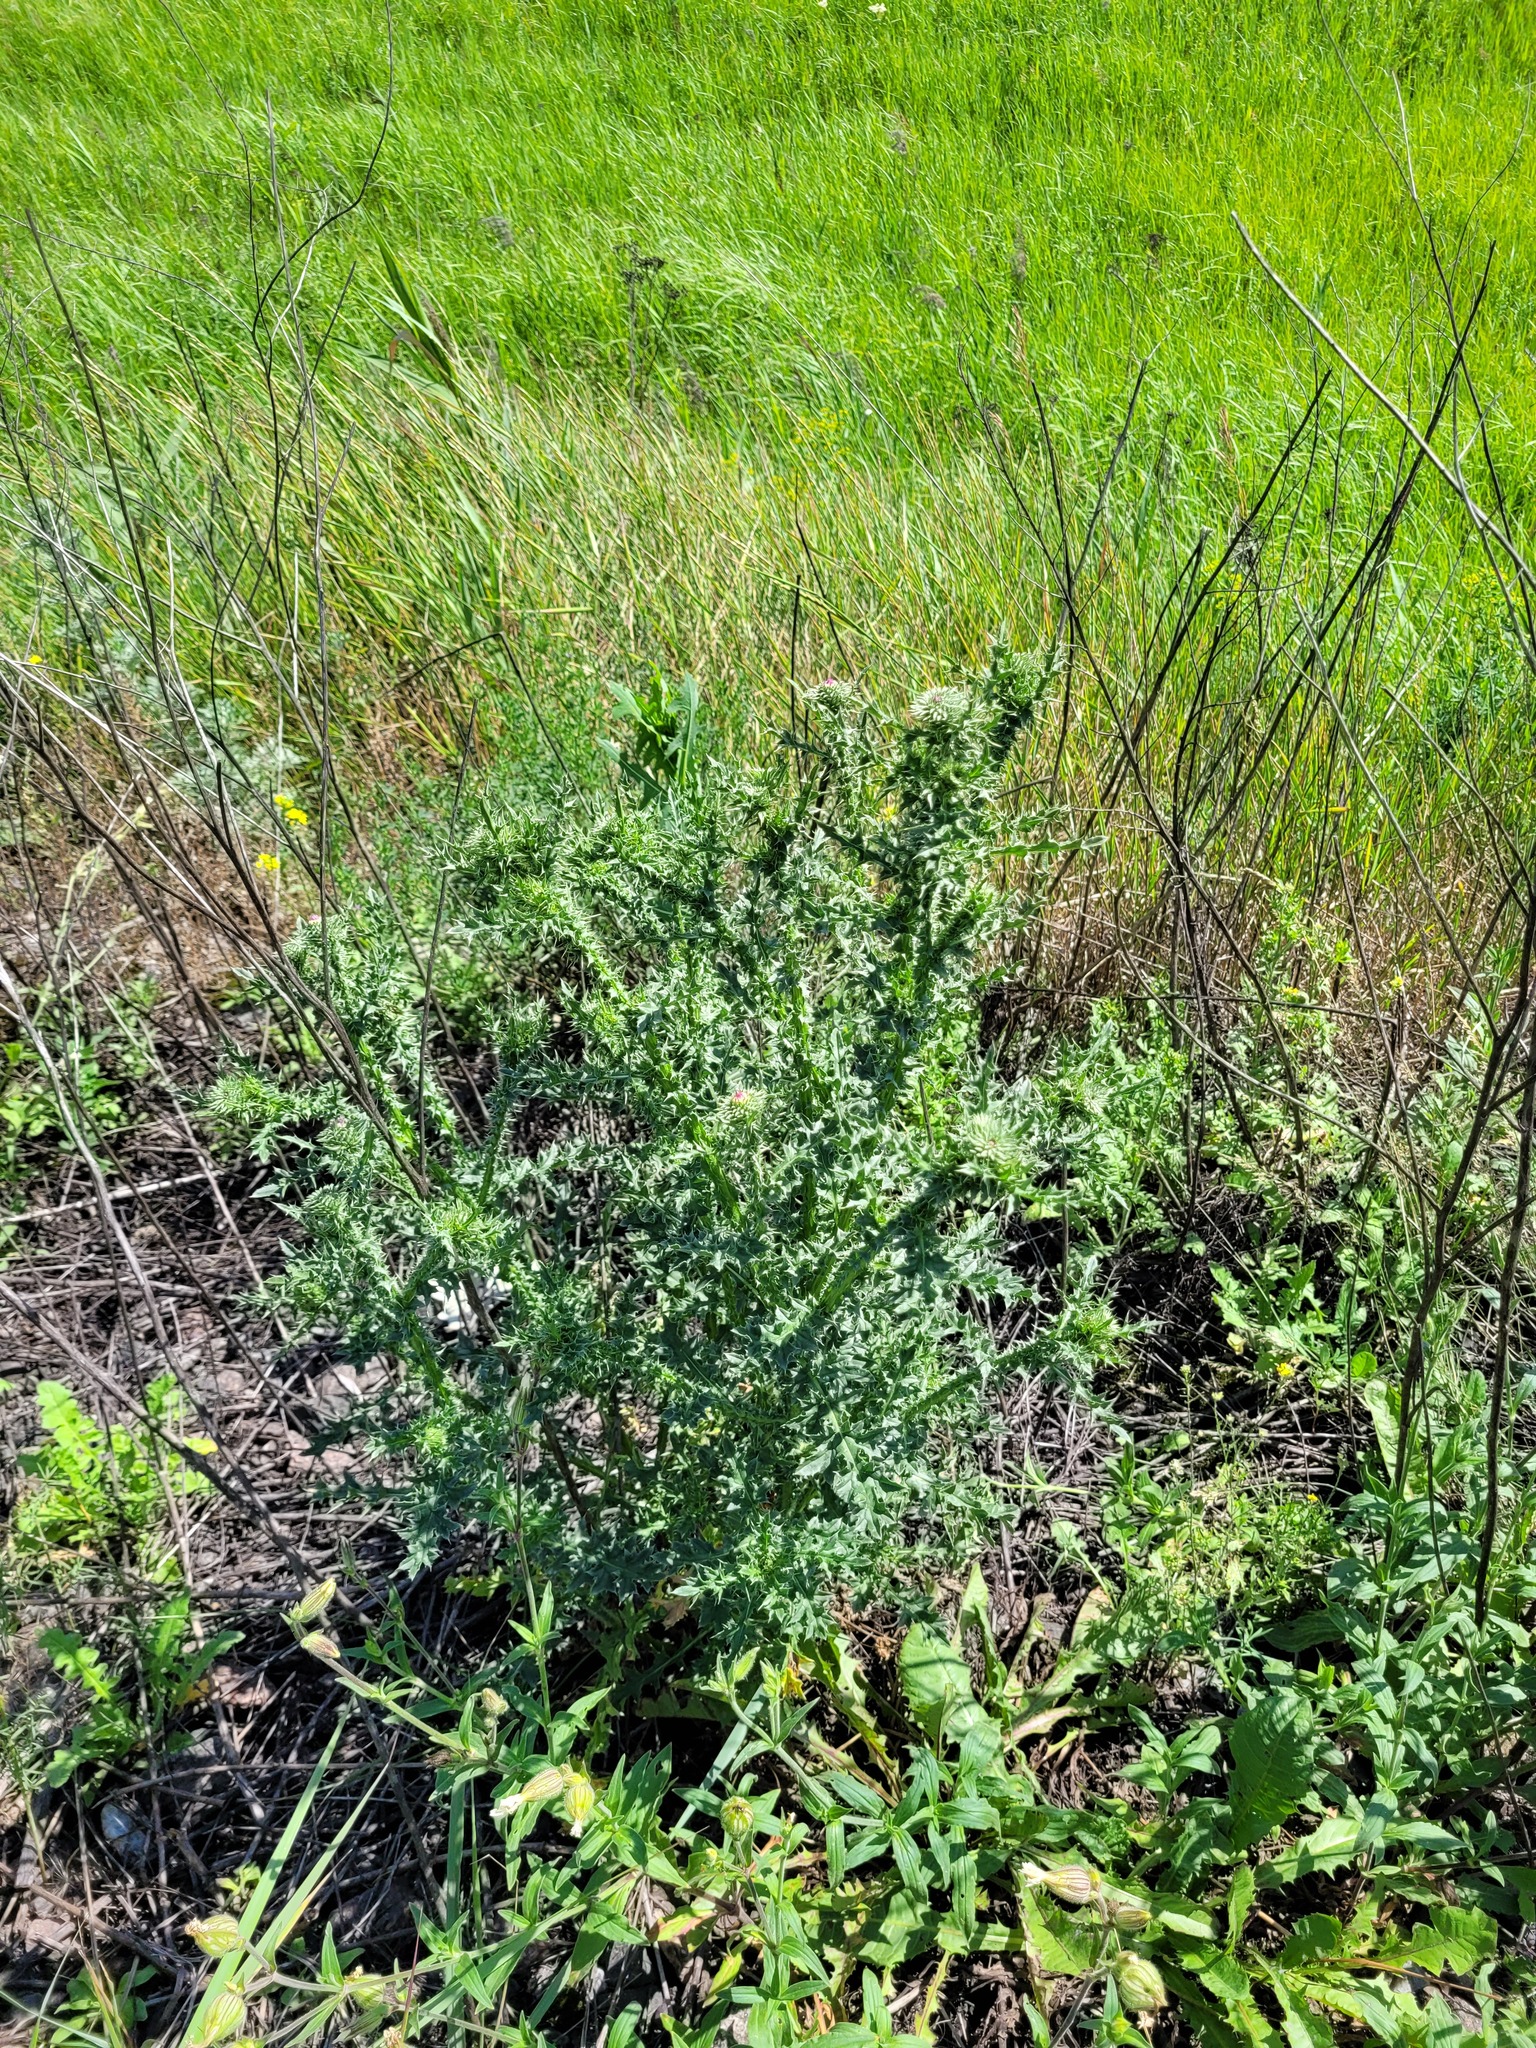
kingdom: Plantae
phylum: Tracheophyta
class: Magnoliopsida
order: Asterales
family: Asteraceae
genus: Carduus
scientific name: Carduus acanthoides
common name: Plumeless thistle
